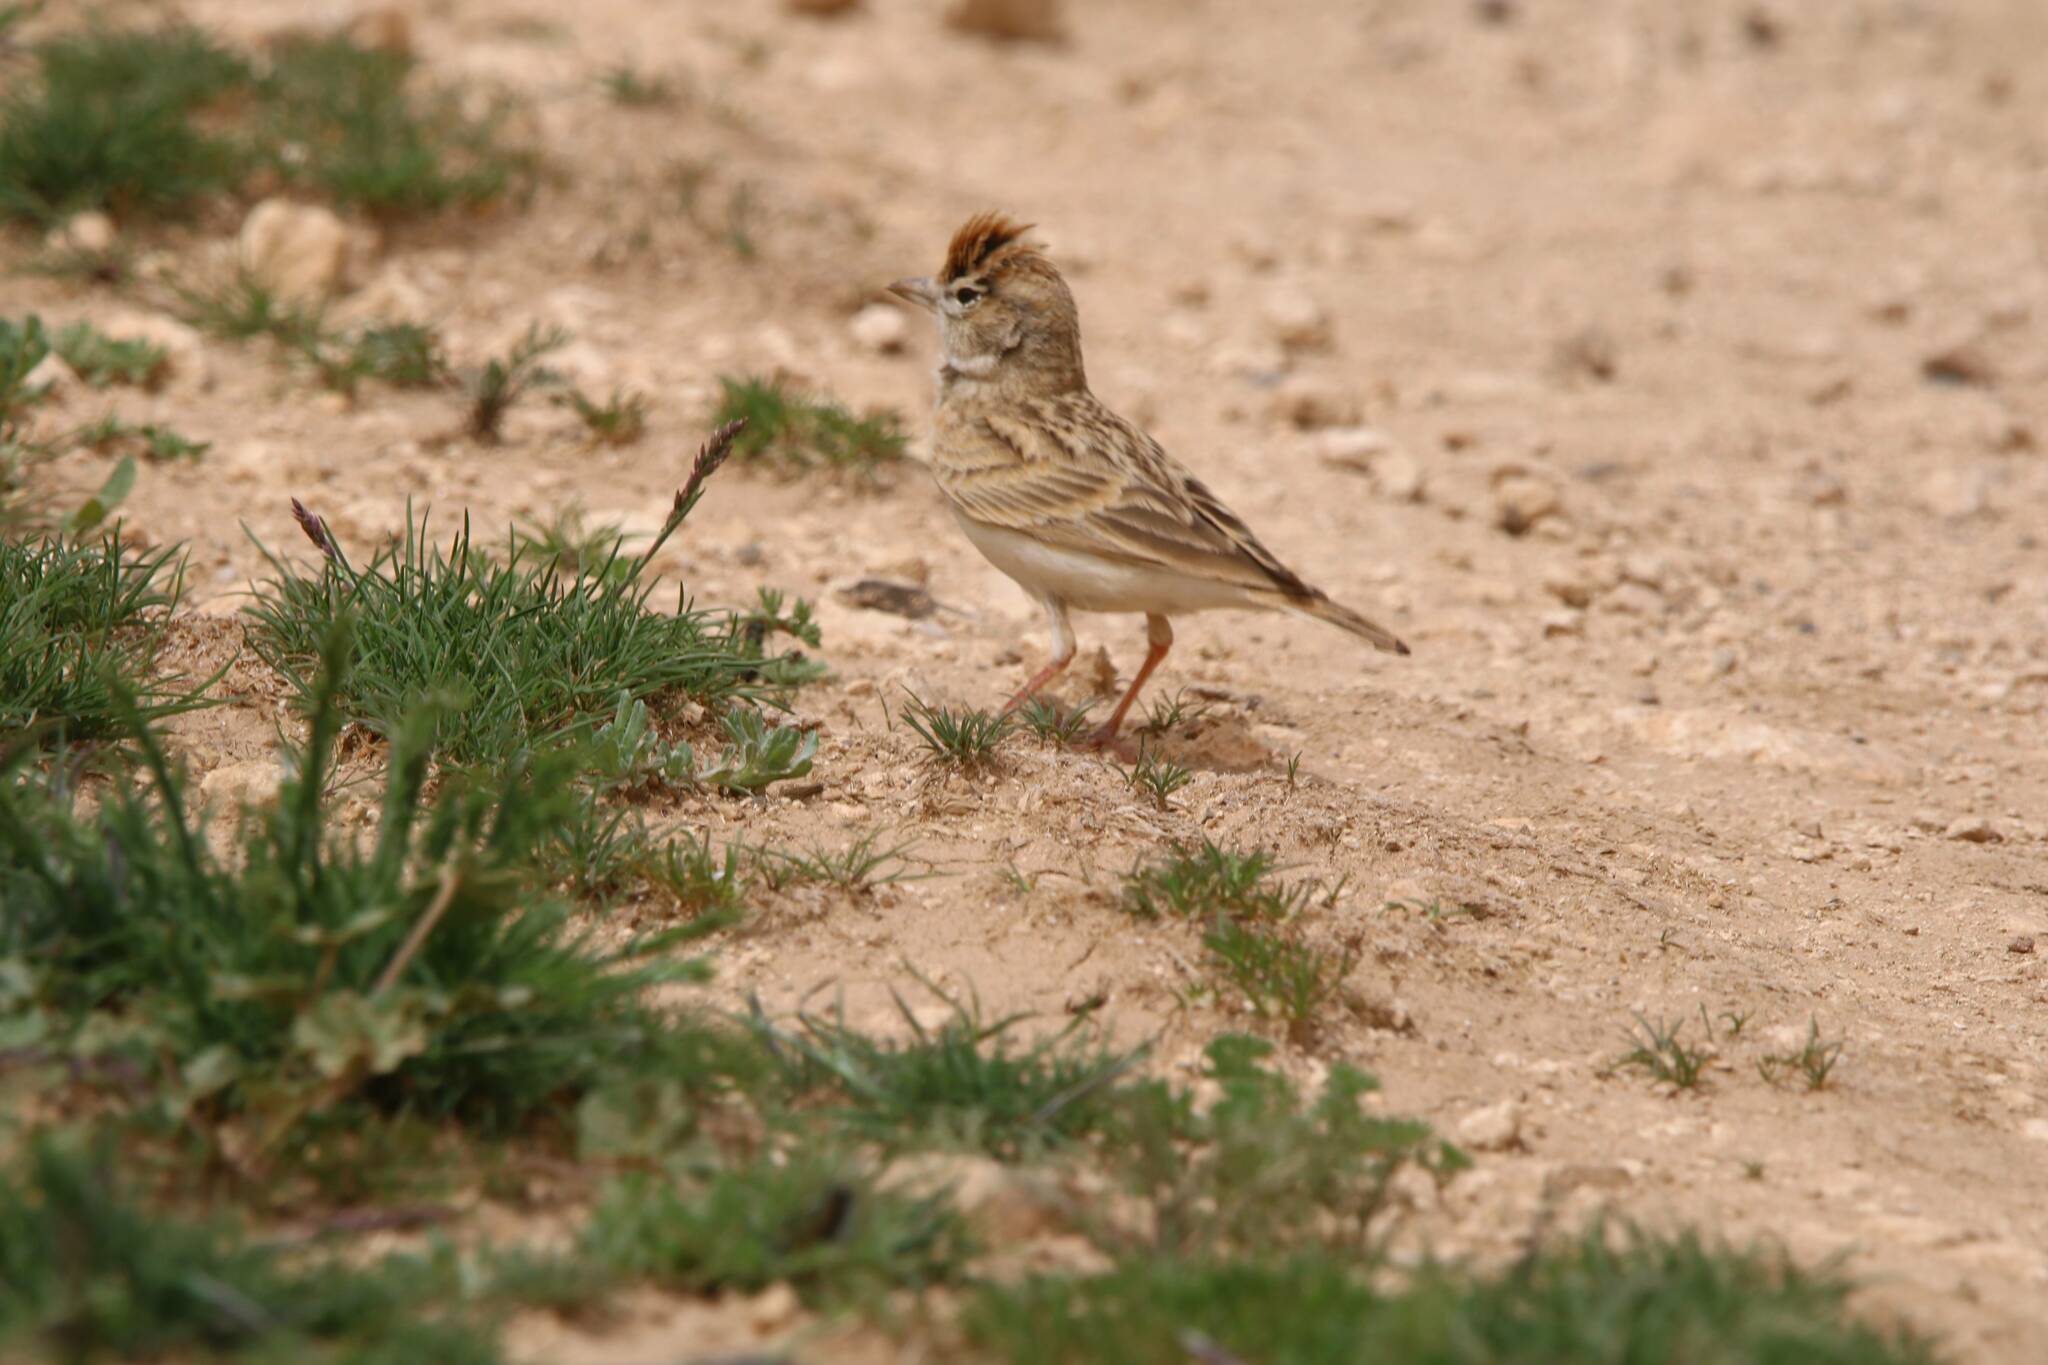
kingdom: Animalia
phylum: Chordata
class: Aves
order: Passeriformes
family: Alaudidae
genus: Calandrella
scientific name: Calandrella brachydactyla
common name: Greater short-toed lark
